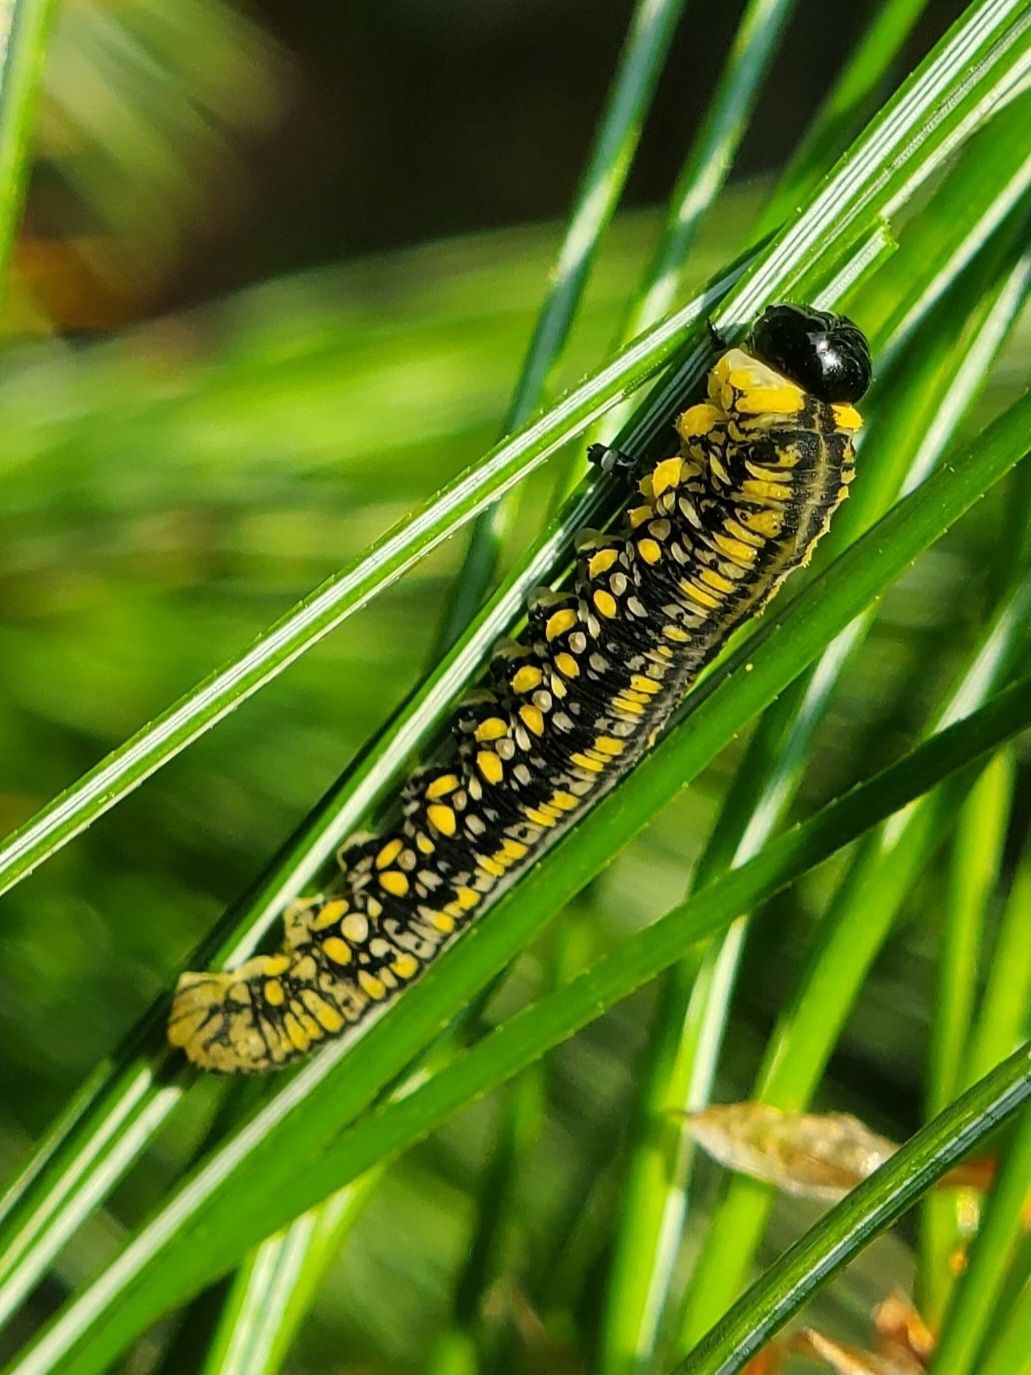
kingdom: Animalia
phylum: Arthropoda
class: Insecta
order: Hymenoptera
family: Diprionidae
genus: Diprion
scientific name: Diprion similis
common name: Pine sawfly
